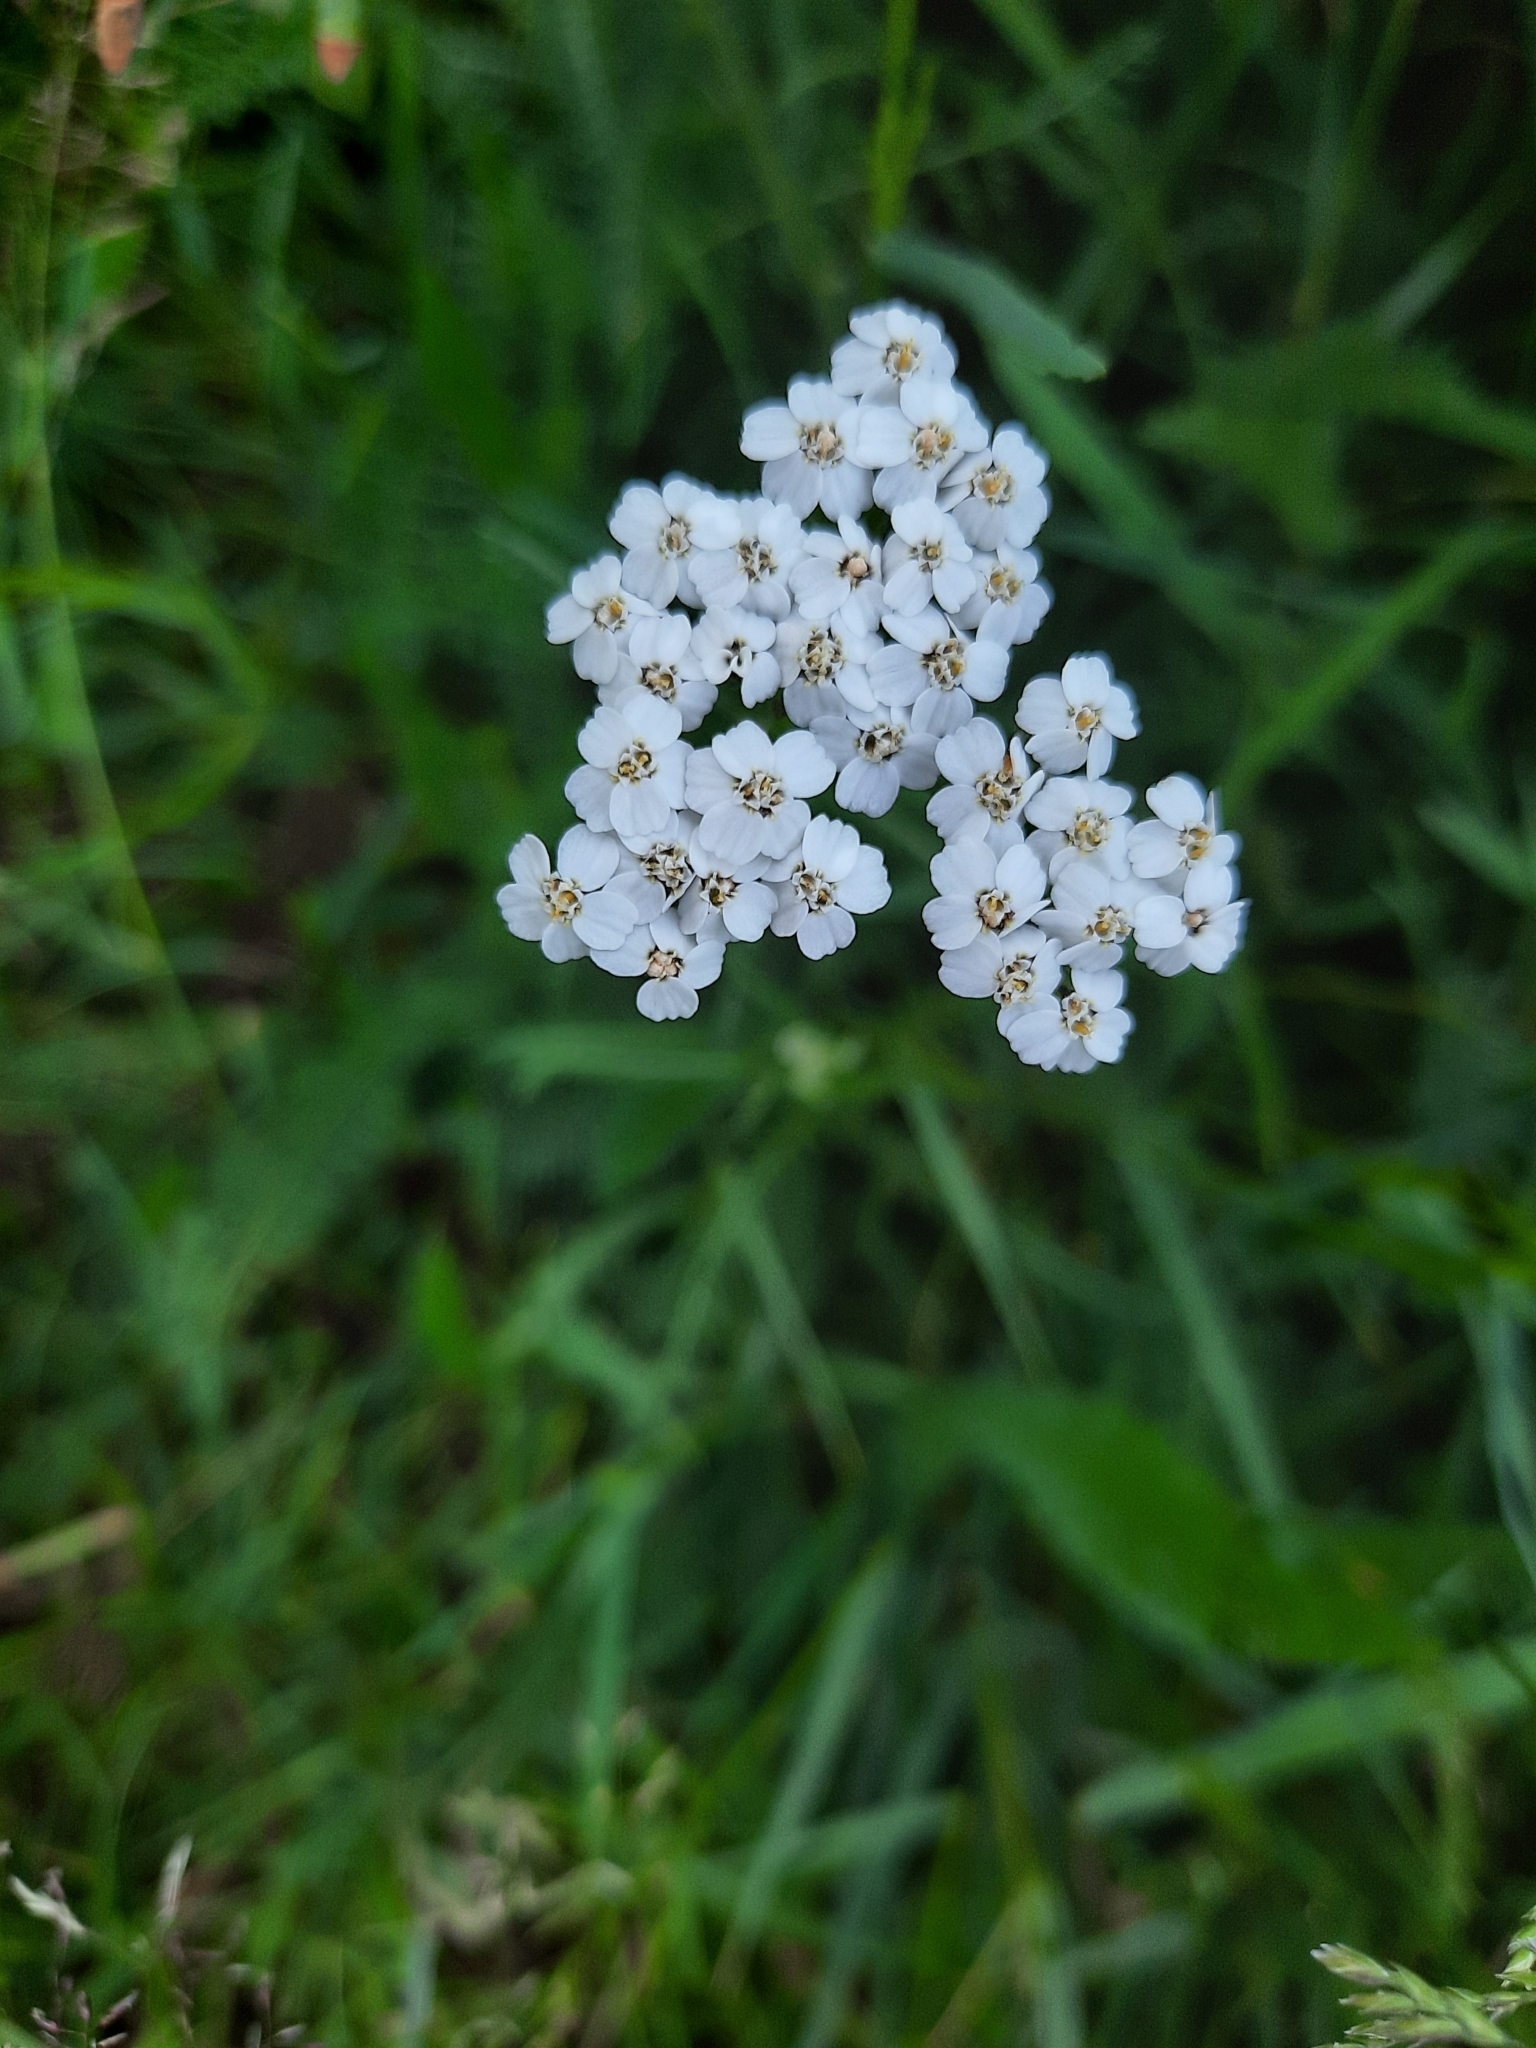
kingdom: Plantae
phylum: Tracheophyta
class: Magnoliopsida
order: Asterales
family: Asteraceae
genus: Achillea
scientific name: Achillea millefolium
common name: Yarrow
